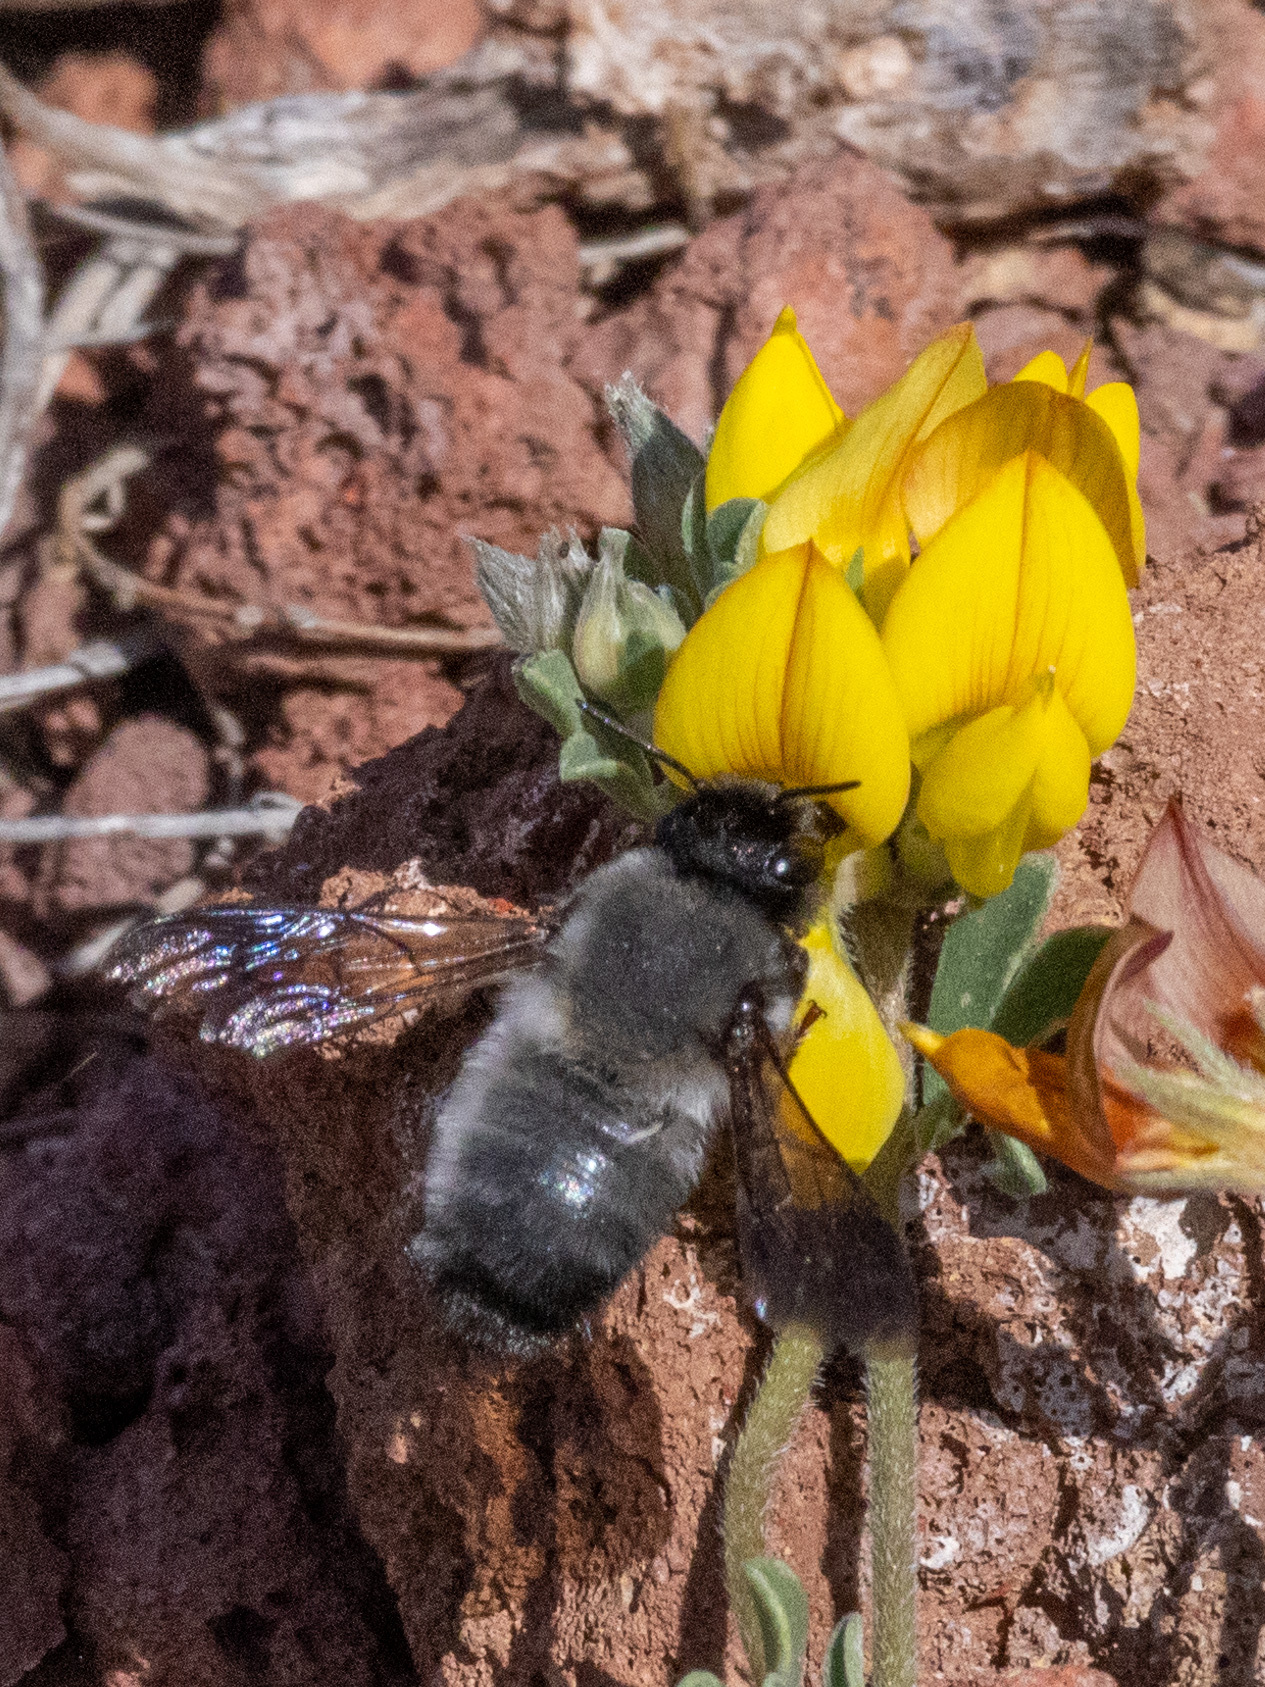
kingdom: Animalia
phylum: Arthropoda
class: Insecta
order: Hymenoptera
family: Megachilidae
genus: Megachile
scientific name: Megachile canescens
